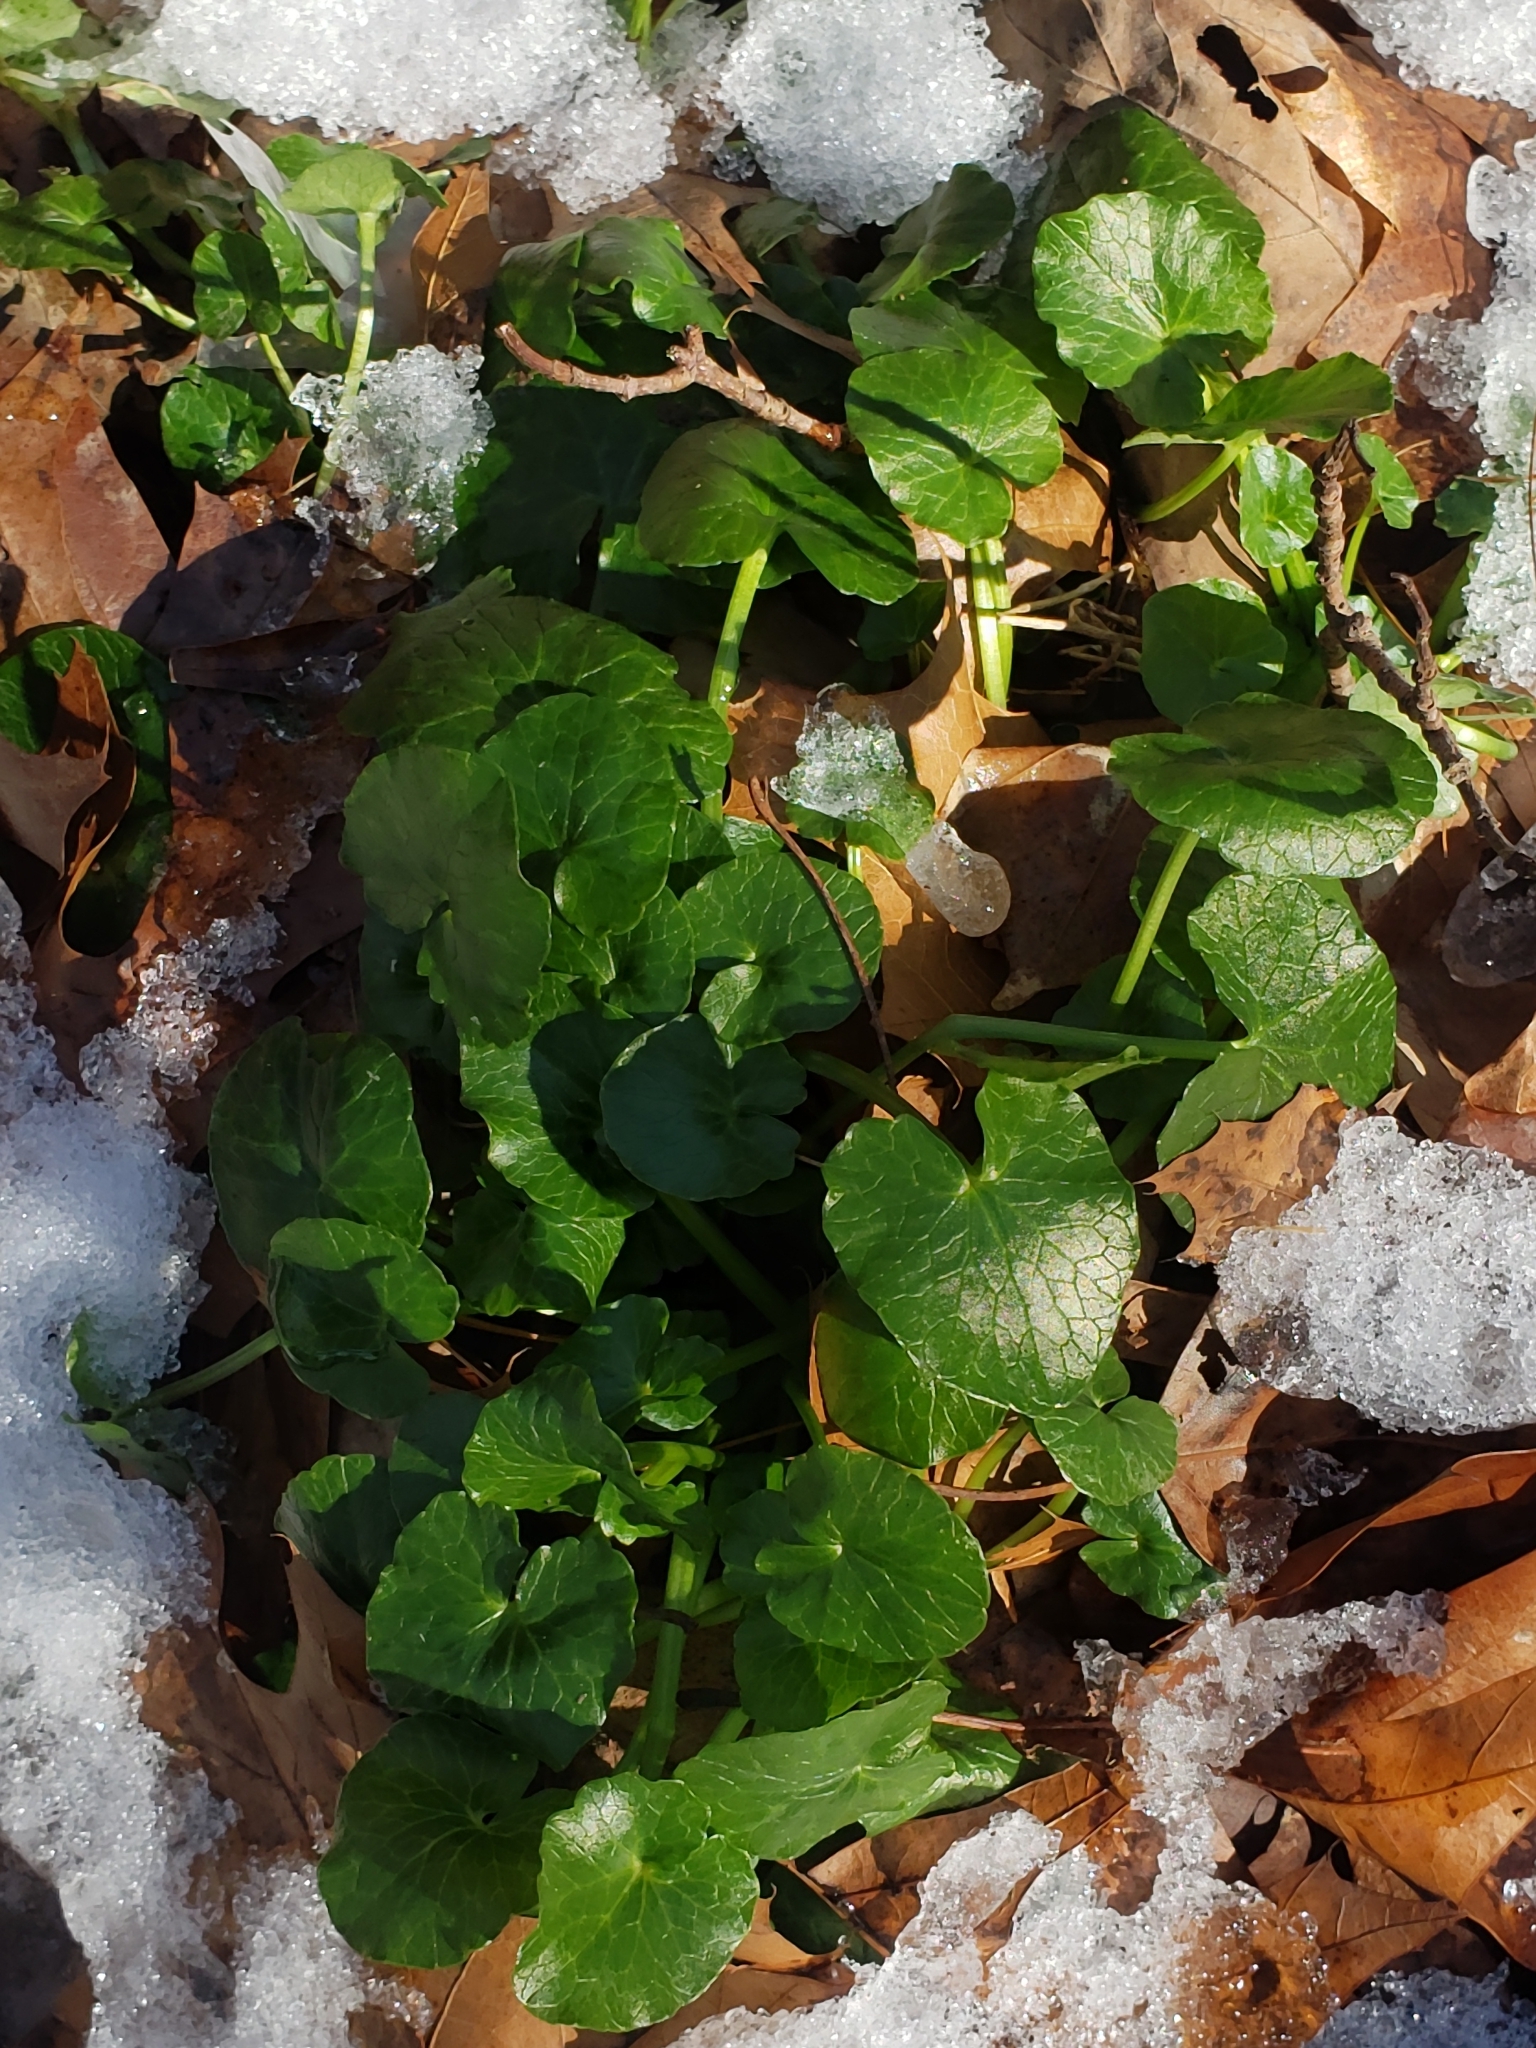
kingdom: Plantae
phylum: Tracheophyta
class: Magnoliopsida
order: Ranunculales
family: Ranunculaceae
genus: Ficaria
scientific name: Ficaria verna
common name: Lesser celandine
